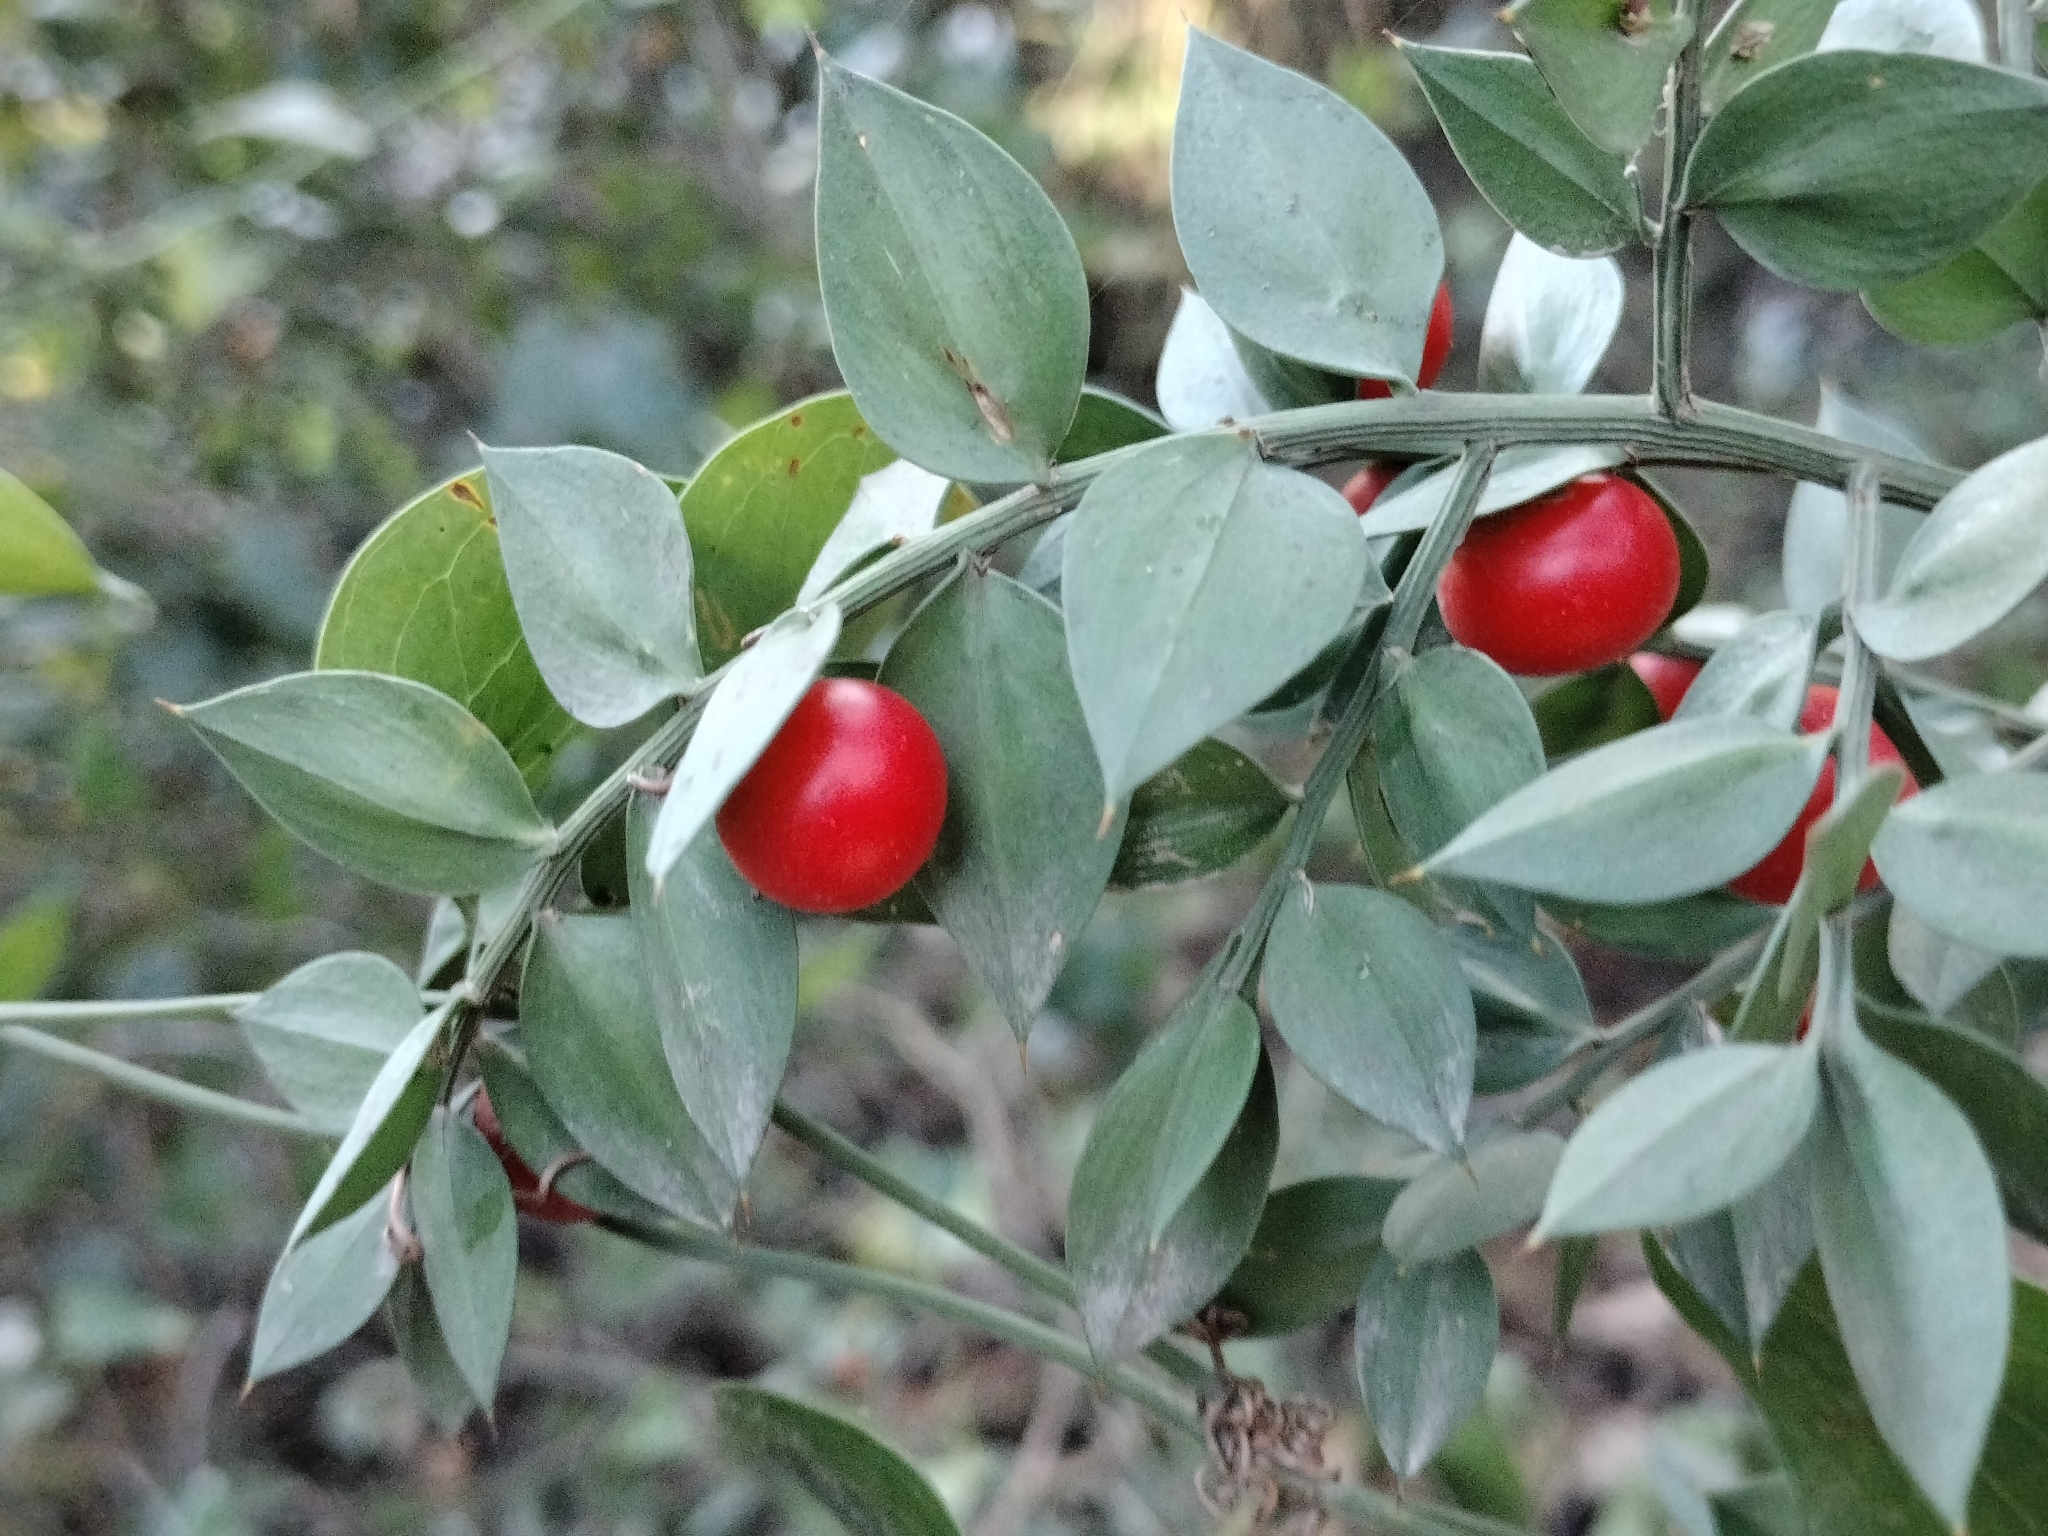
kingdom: Plantae
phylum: Tracheophyta
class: Liliopsida
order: Asparagales
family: Asparagaceae
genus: Ruscus
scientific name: Ruscus aculeatus
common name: Butcher's-broom
